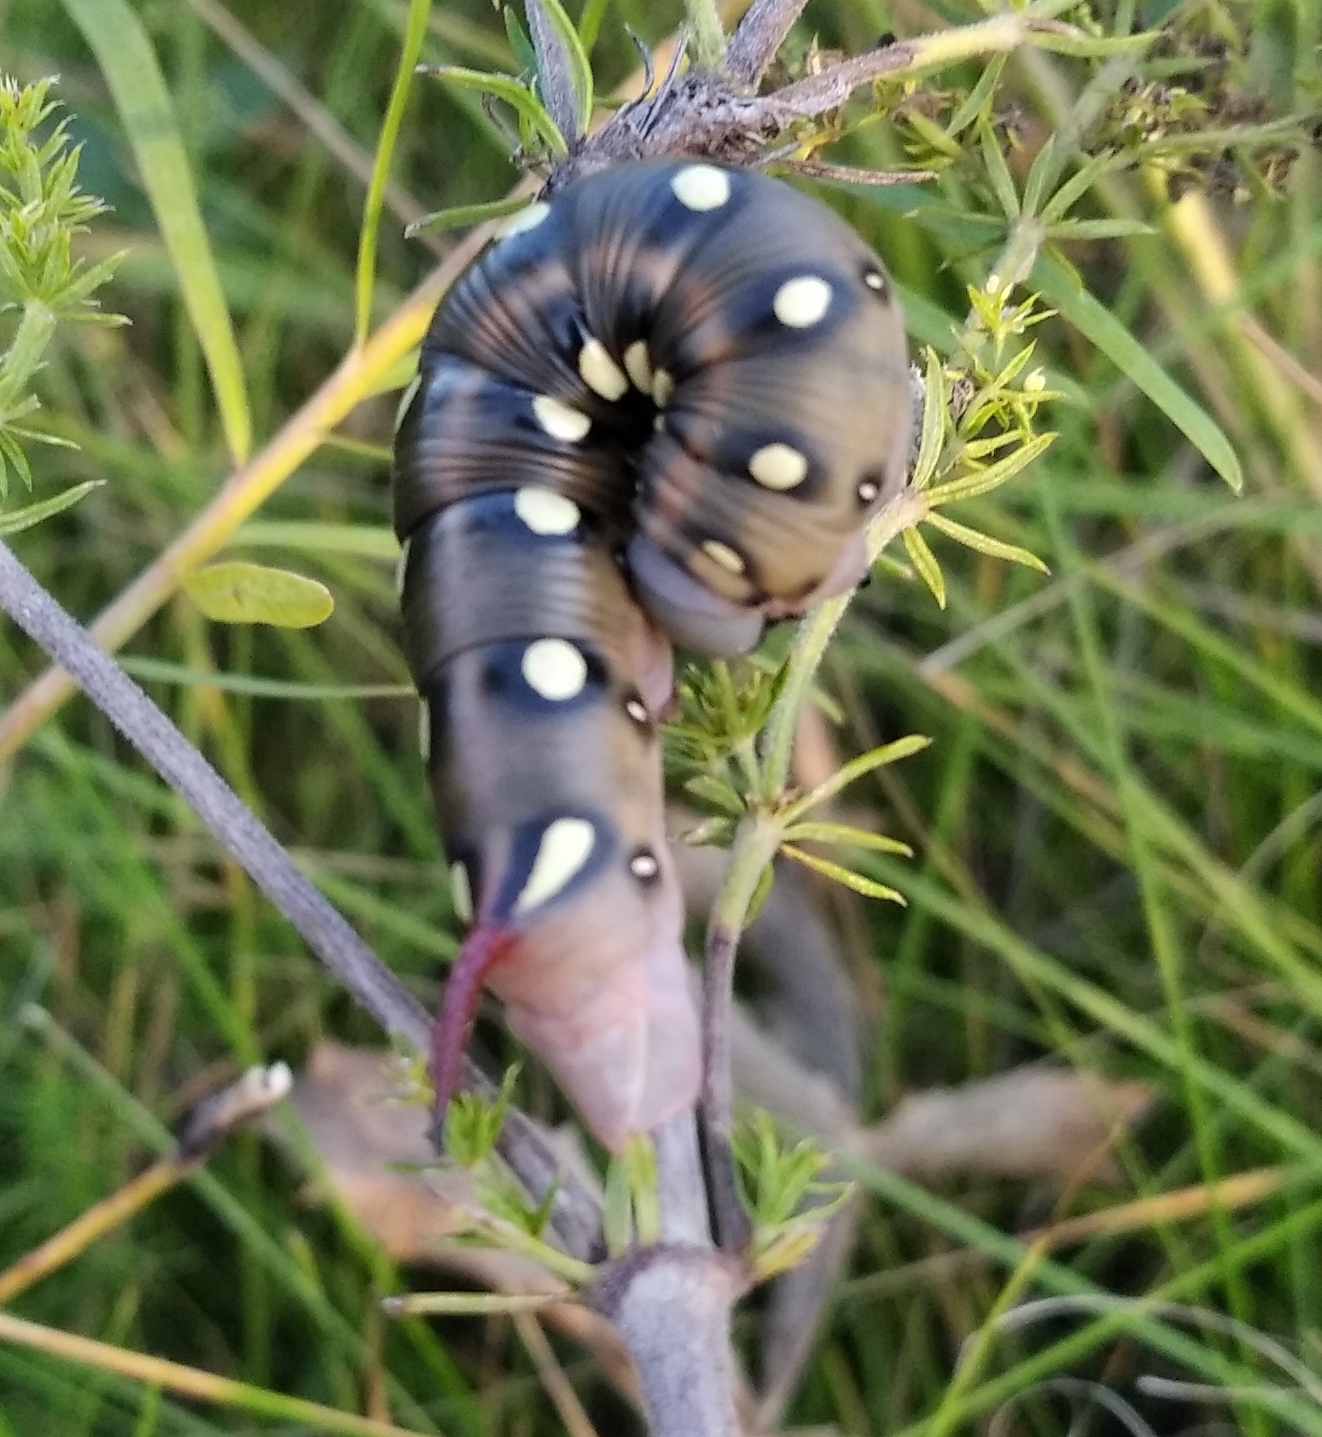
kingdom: Animalia
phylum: Arthropoda
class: Insecta
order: Lepidoptera
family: Sphingidae
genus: Hyles
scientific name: Hyles gallii
